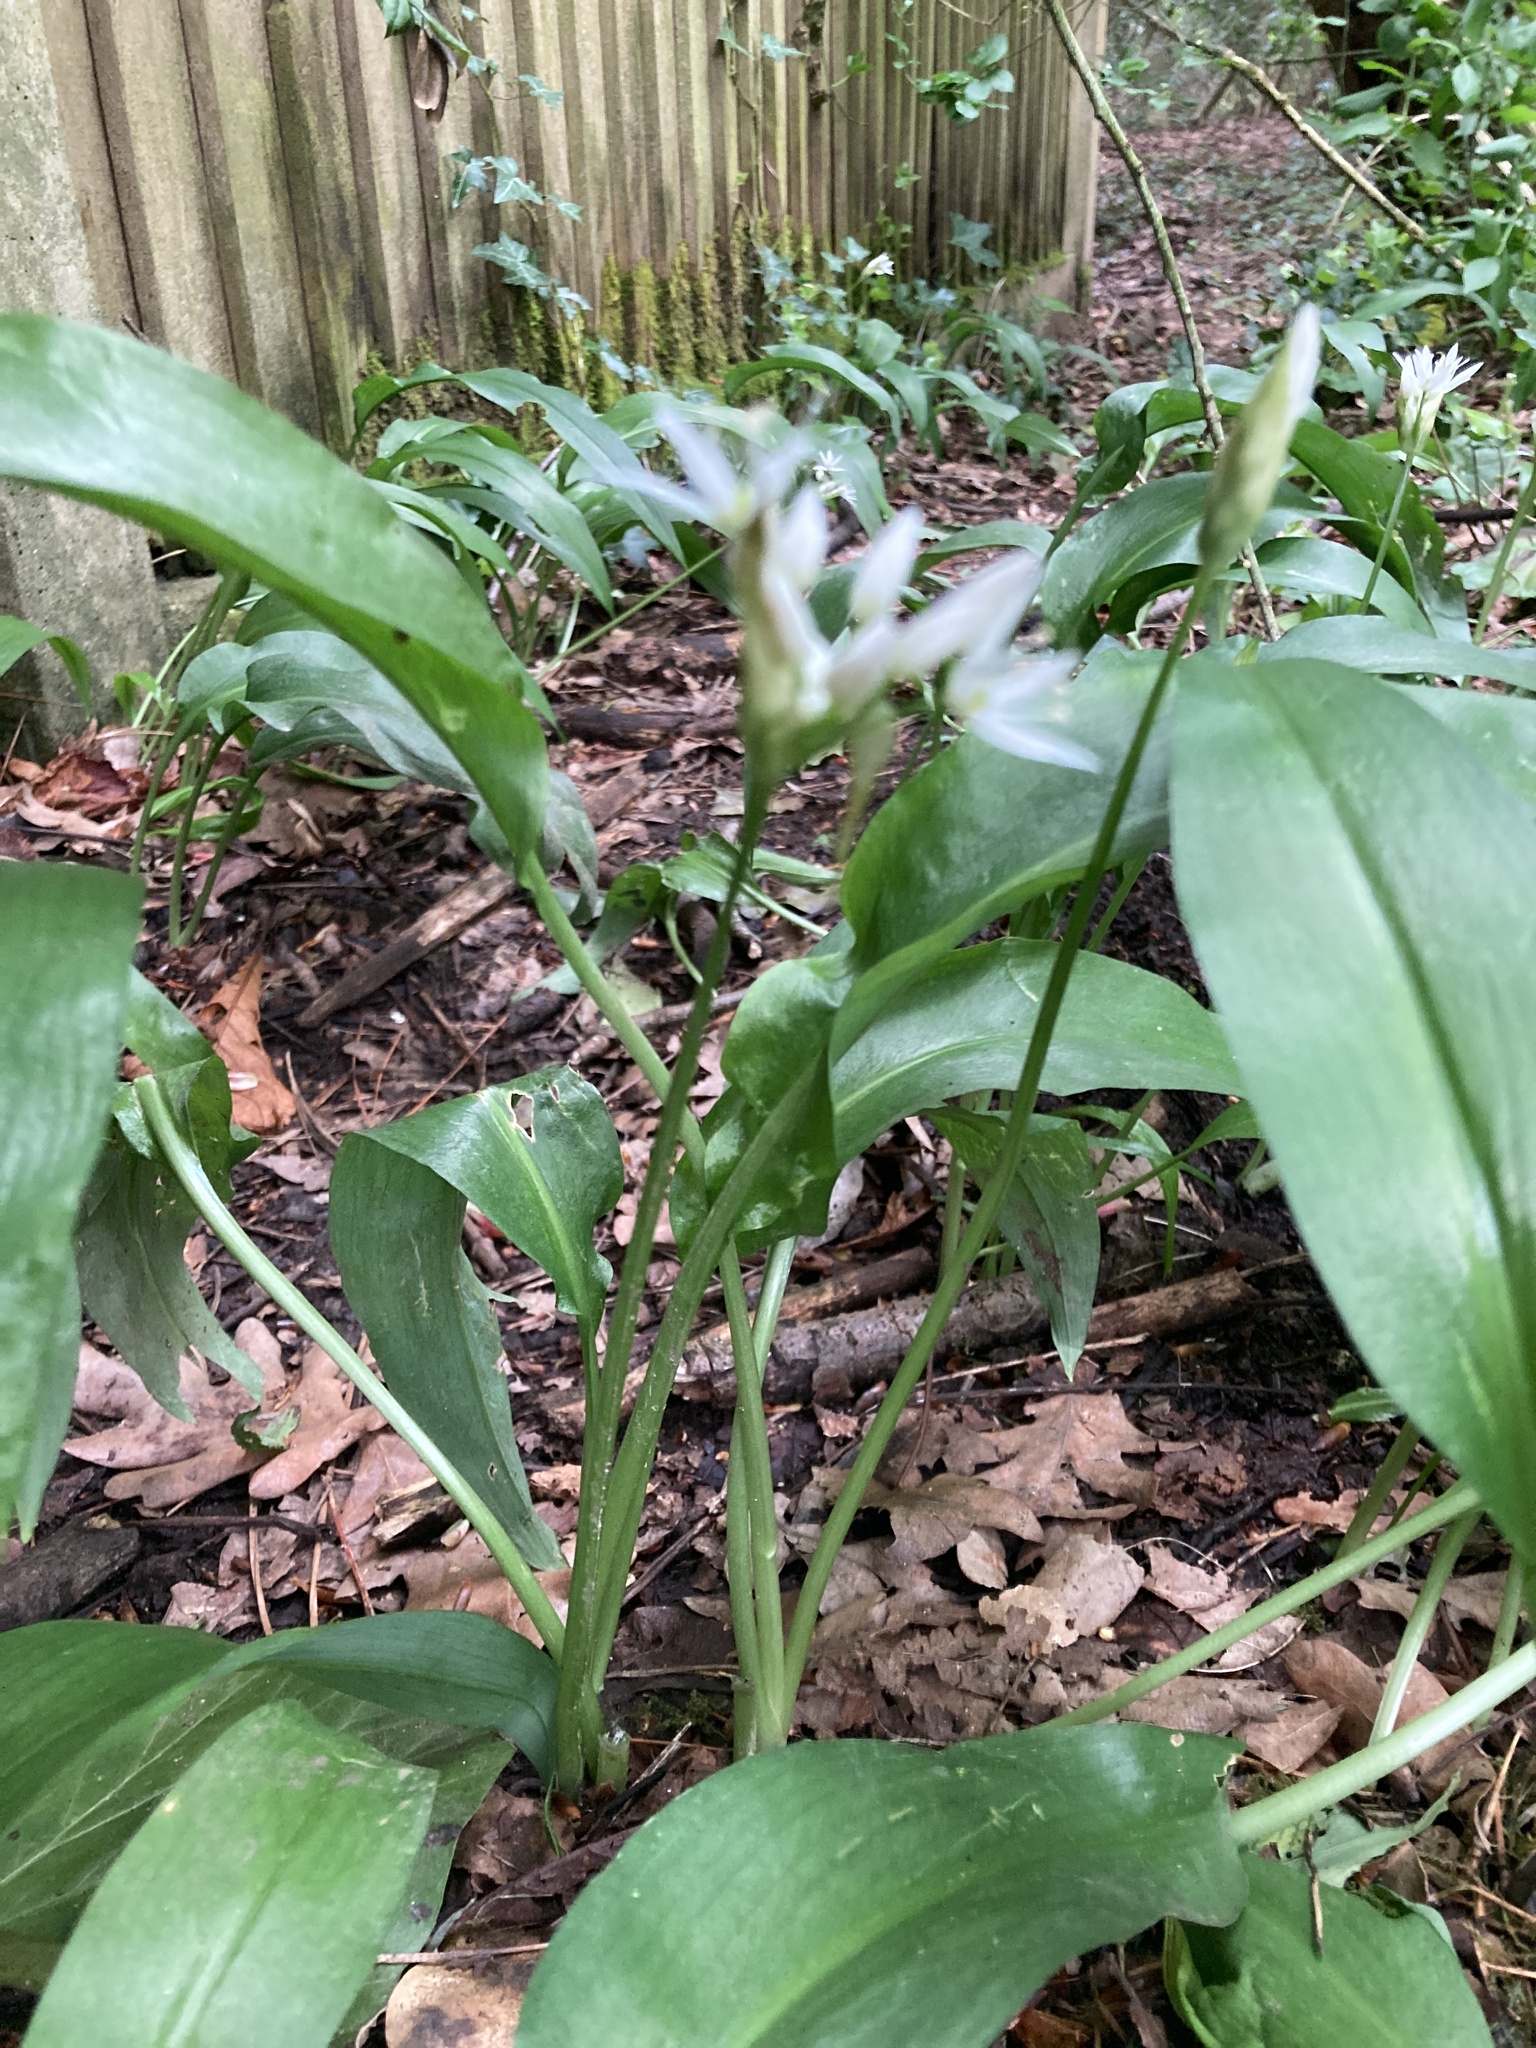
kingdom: Plantae
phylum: Tracheophyta
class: Liliopsida
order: Asparagales
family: Amaryllidaceae
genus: Allium
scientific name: Allium ursinum
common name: Ramsons
